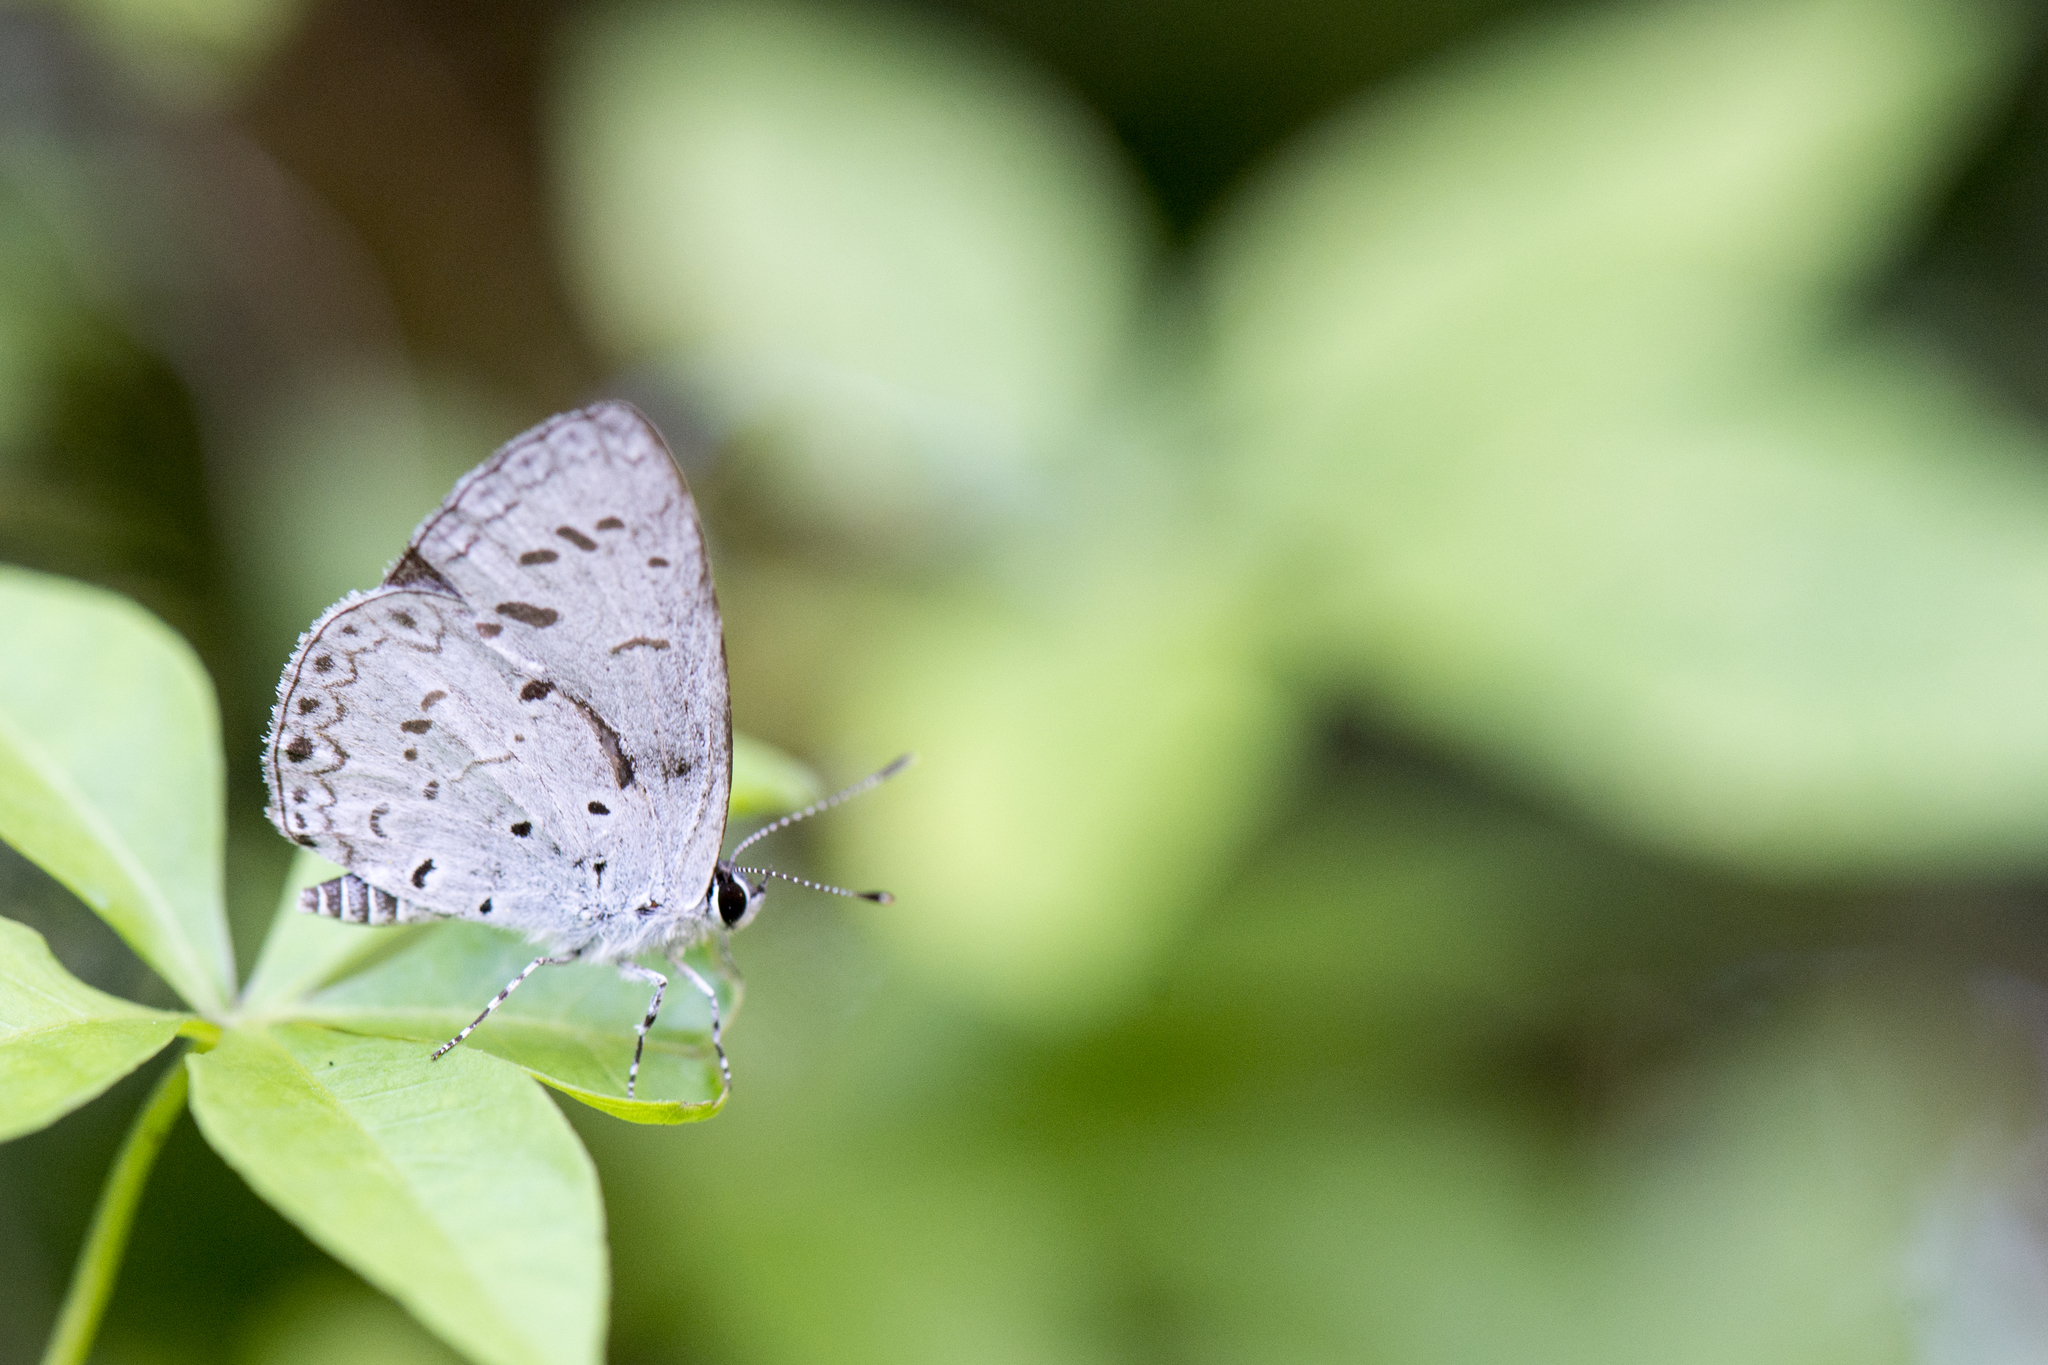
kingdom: Animalia
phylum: Arthropoda
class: Insecta
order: Lepidoptera
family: Lycaenidae
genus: Acytolepis
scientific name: Acytolepis puspa
